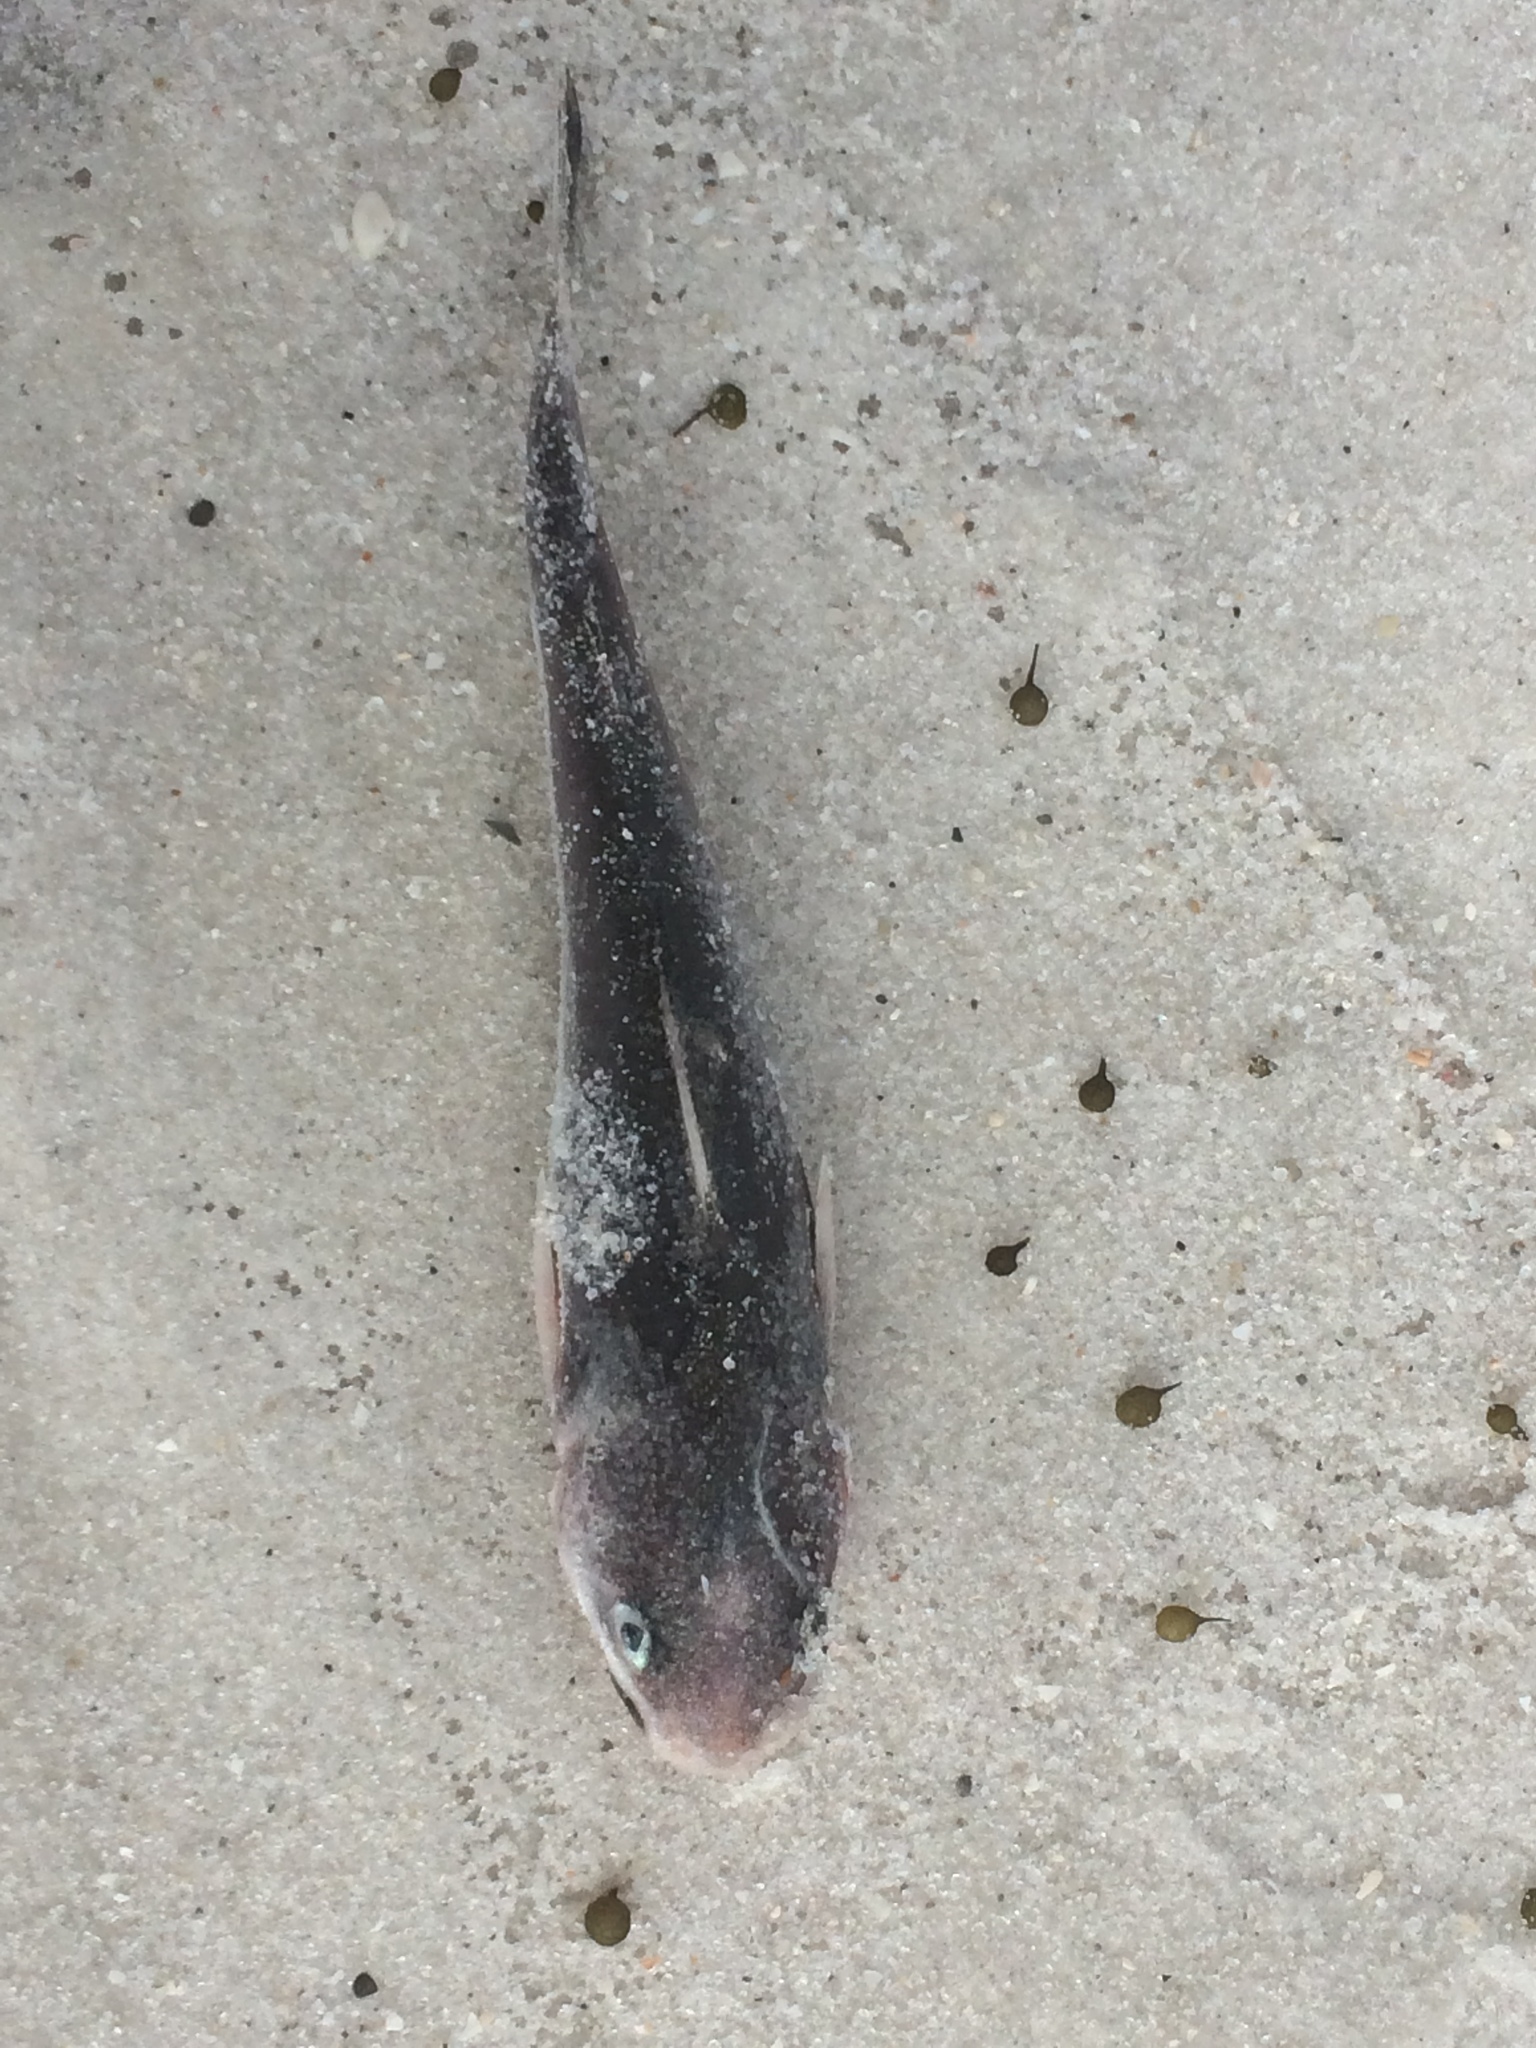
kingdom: Animalia
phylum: Chordata
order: Siluriformes
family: Ariidae
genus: Ariopsis
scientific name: Ariopsis felis
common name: Hardhead catfish
